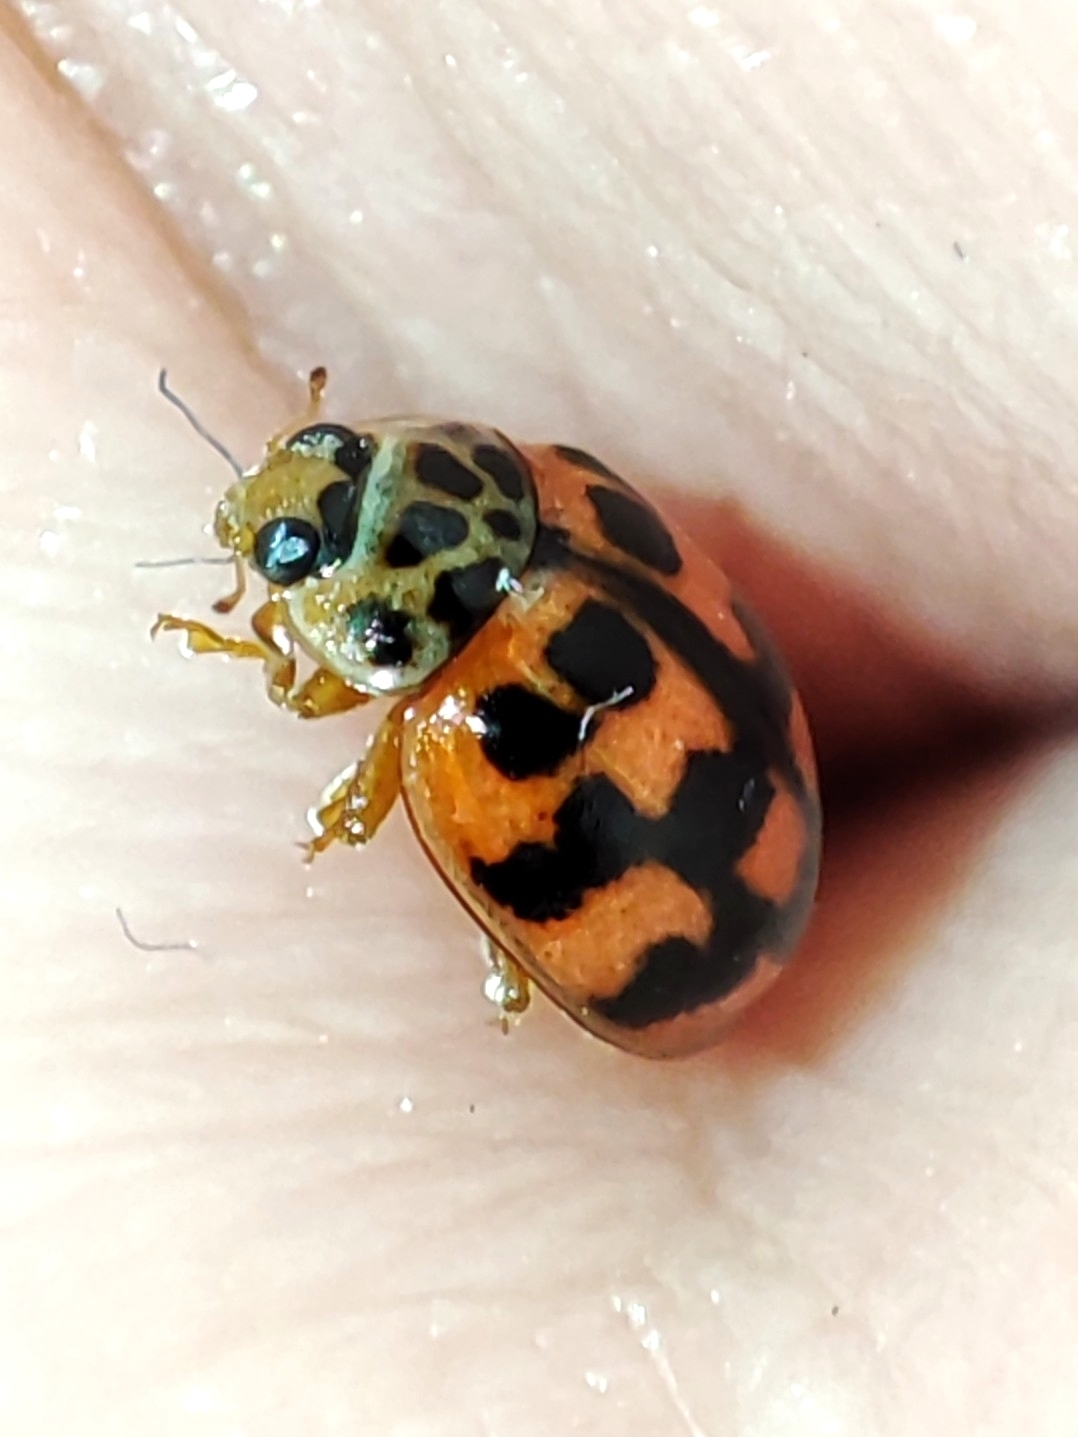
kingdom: Animalia
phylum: Arthropoda
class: Insecta
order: Coleoptera
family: Coccinellidae
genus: Oenopia
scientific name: Oenopia conglobata
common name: Ladybird beetle
